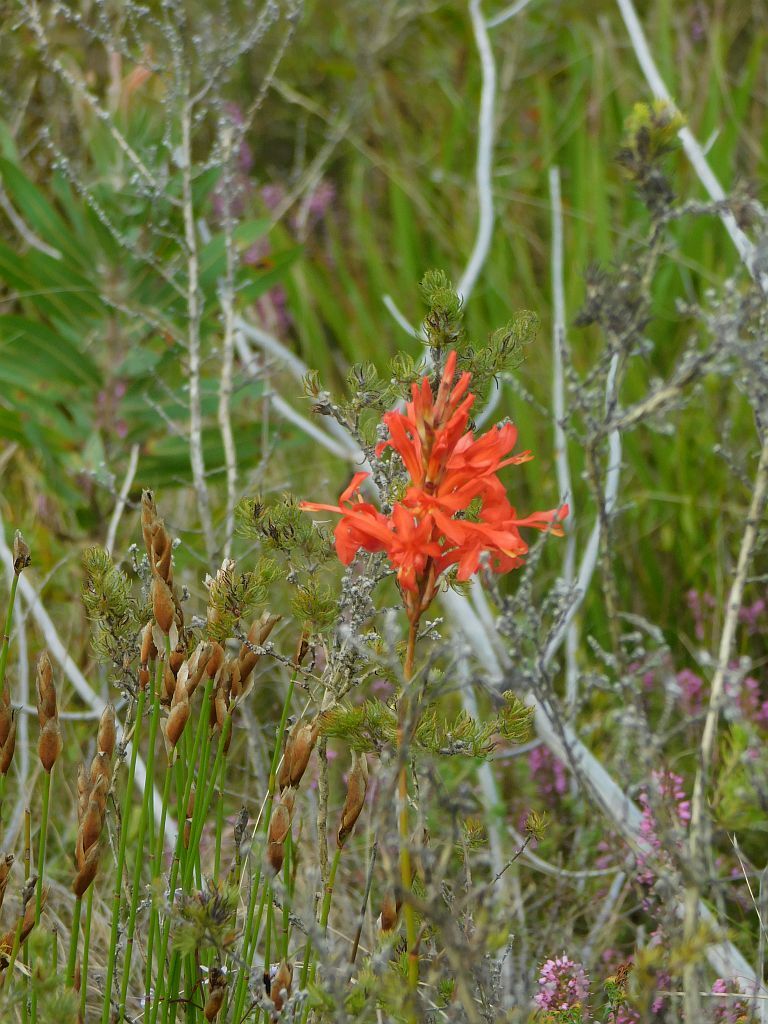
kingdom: Plantae
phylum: Tracheophyta
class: Liliopsida
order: Asparagales
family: Iridaceae
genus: Tritoniopsis
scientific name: Tritoniopsis triticea
